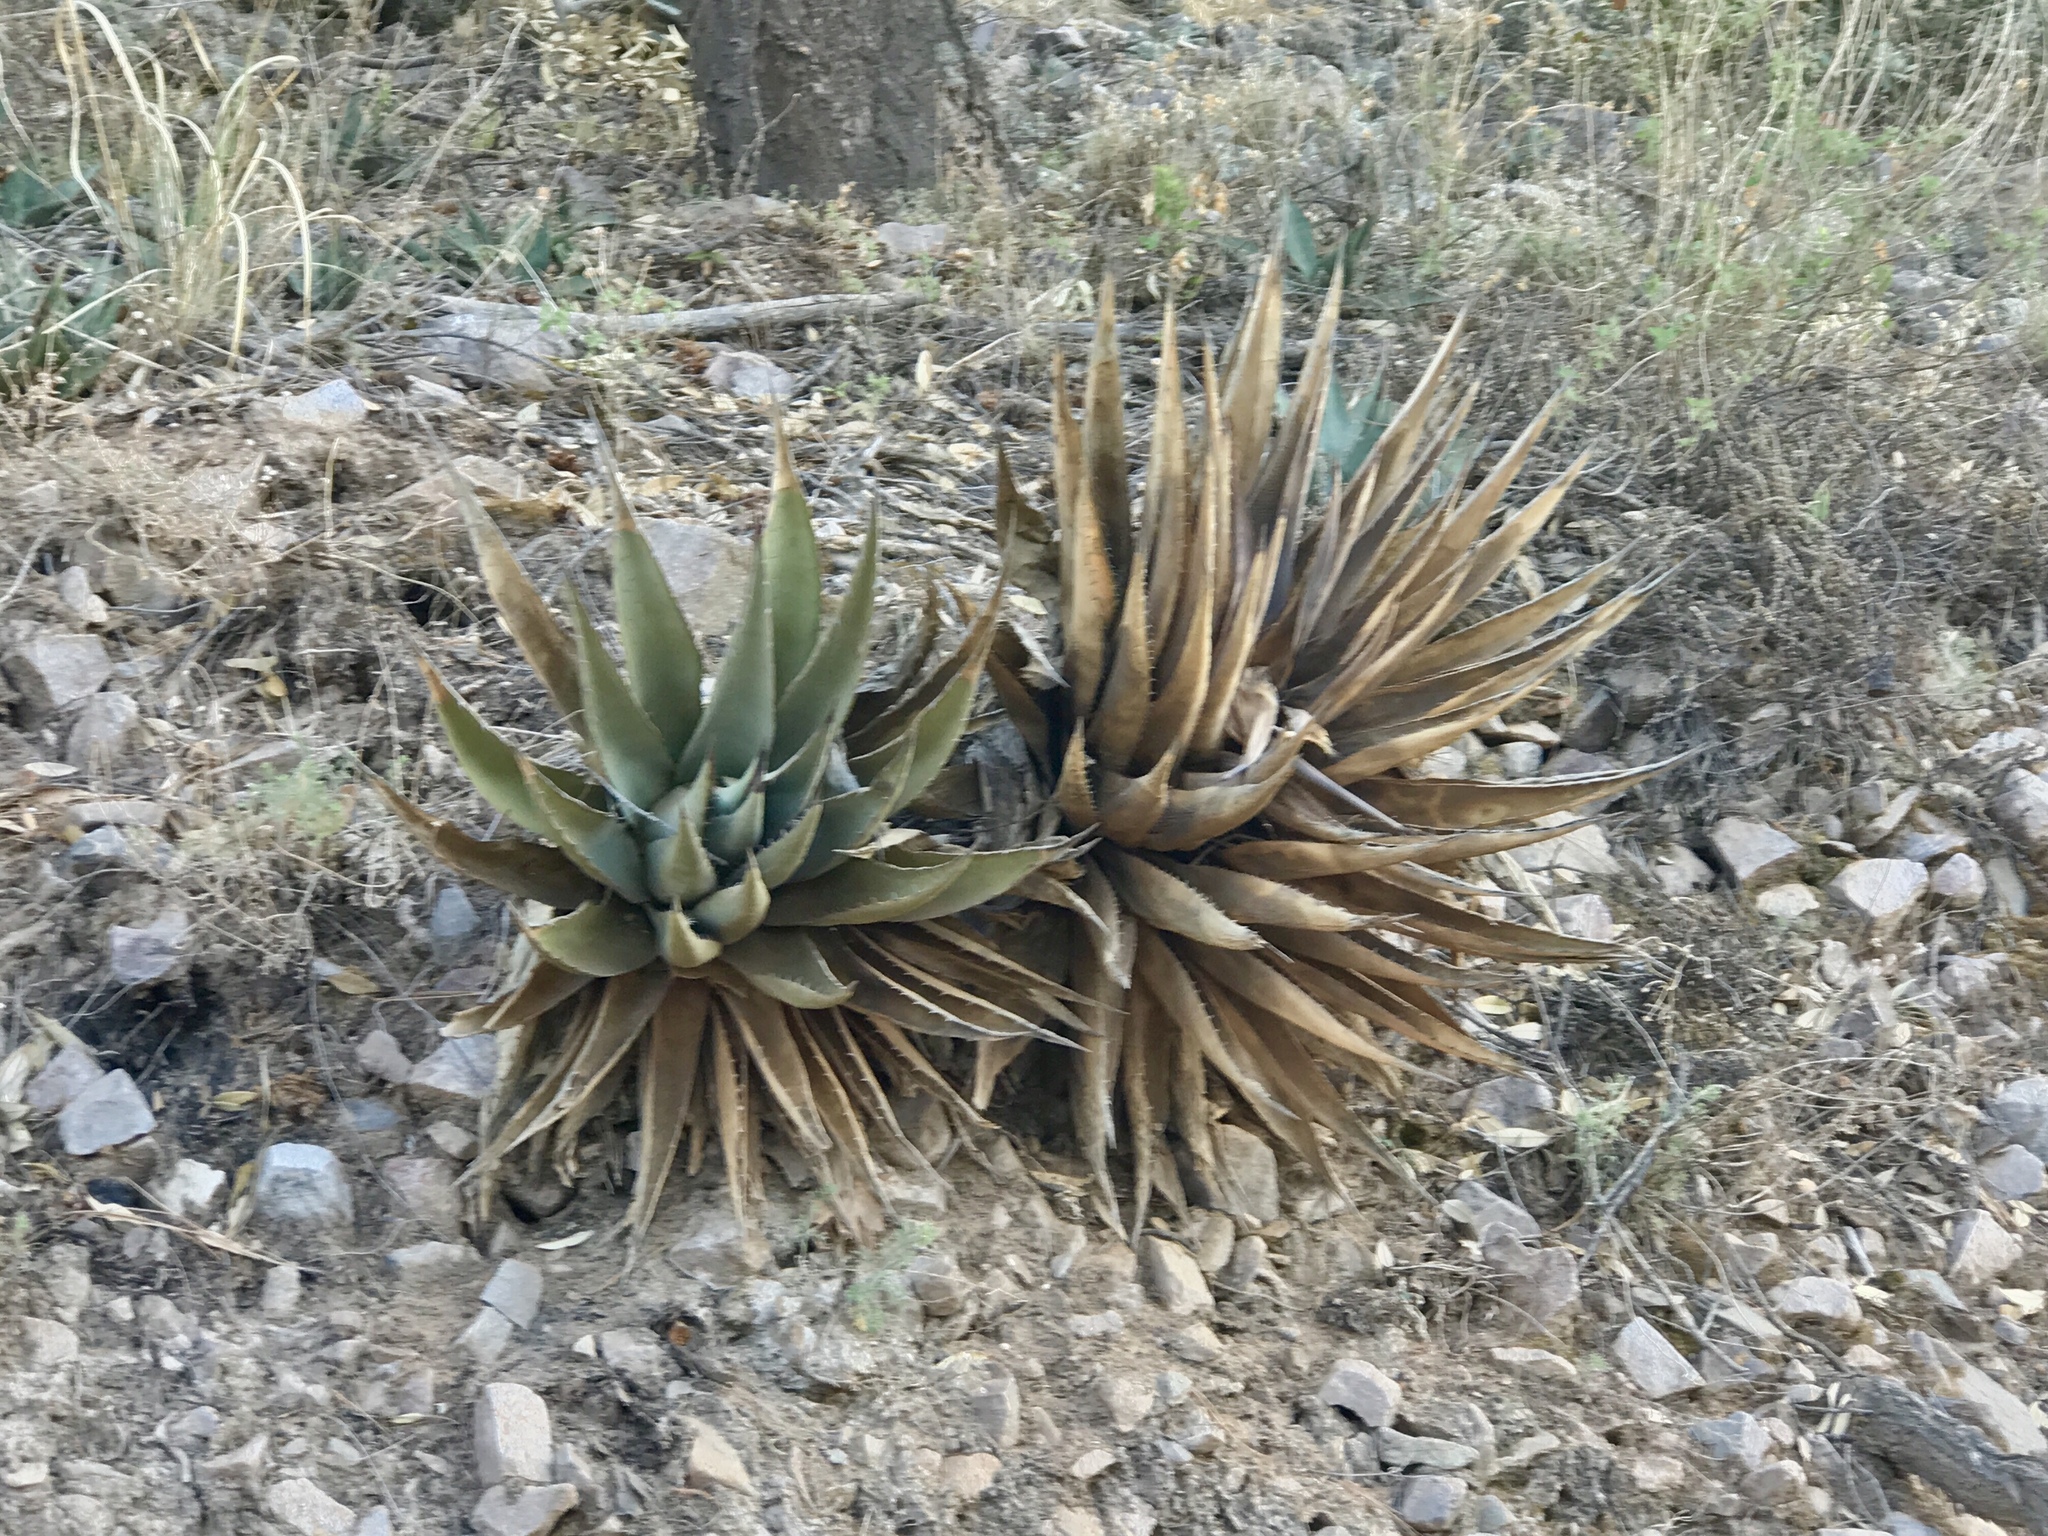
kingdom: Plantae
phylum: Tracheophyta
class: Liliopsida
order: Asparagales
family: Asparagaceae
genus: Agave
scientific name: Agave palmeri
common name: Palmer agave
